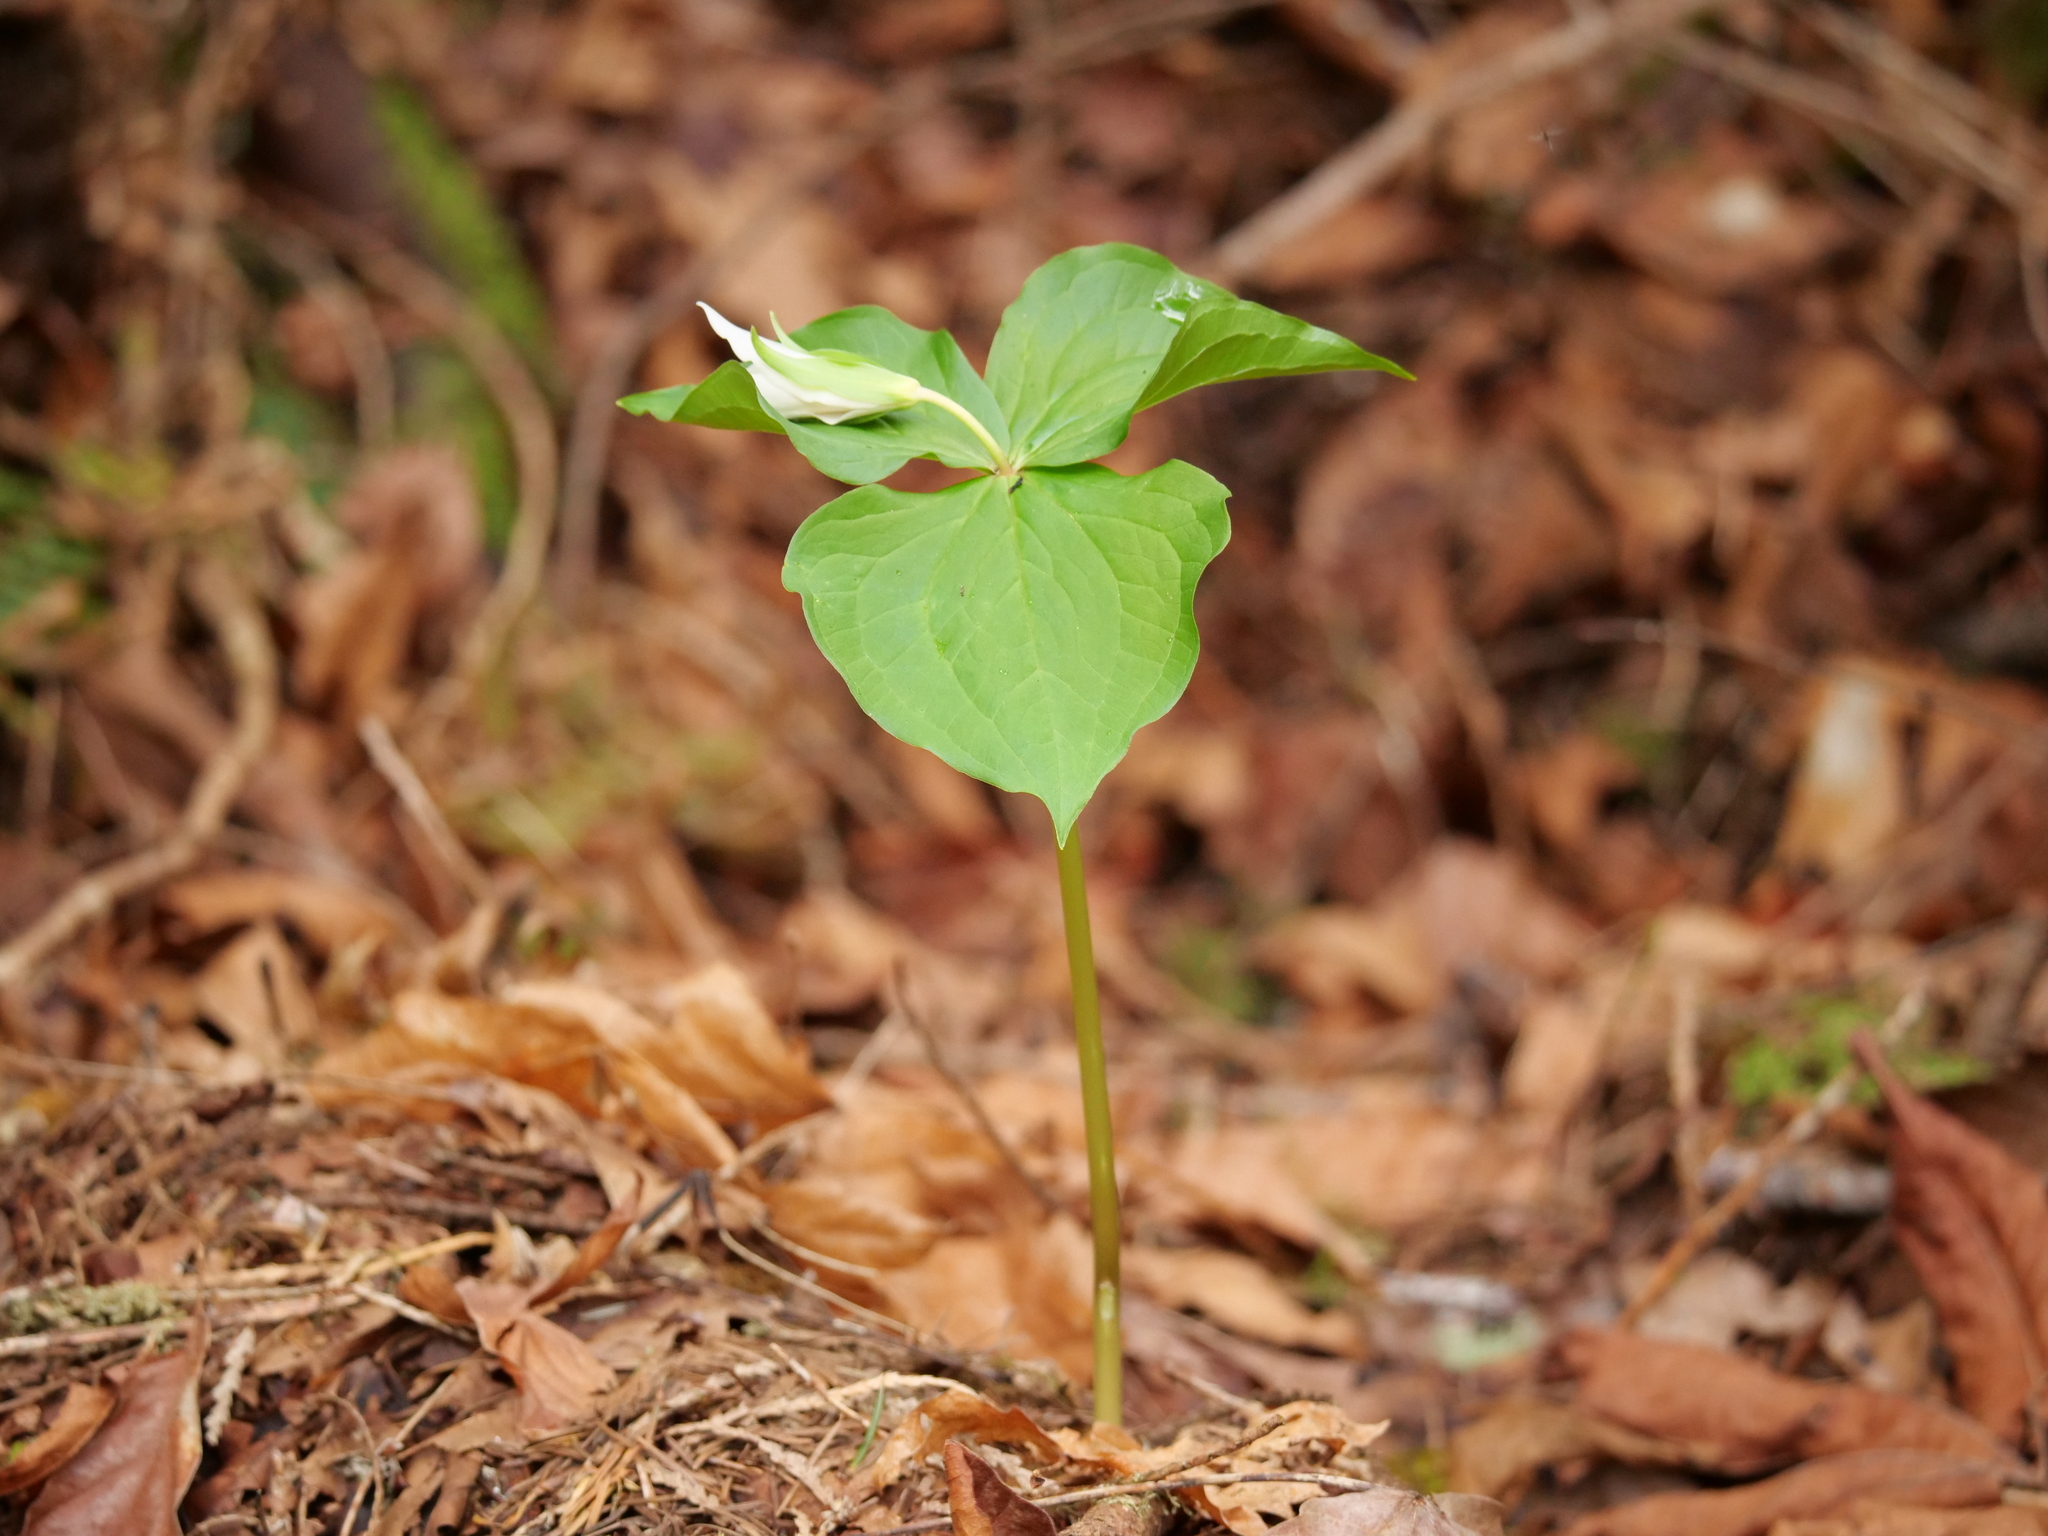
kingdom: Plantae
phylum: Tracheophyta
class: Liliopsida
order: Liliales
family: Melanthiaceae
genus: Trillium
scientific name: Trillium ovatum
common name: Pacific trillium
